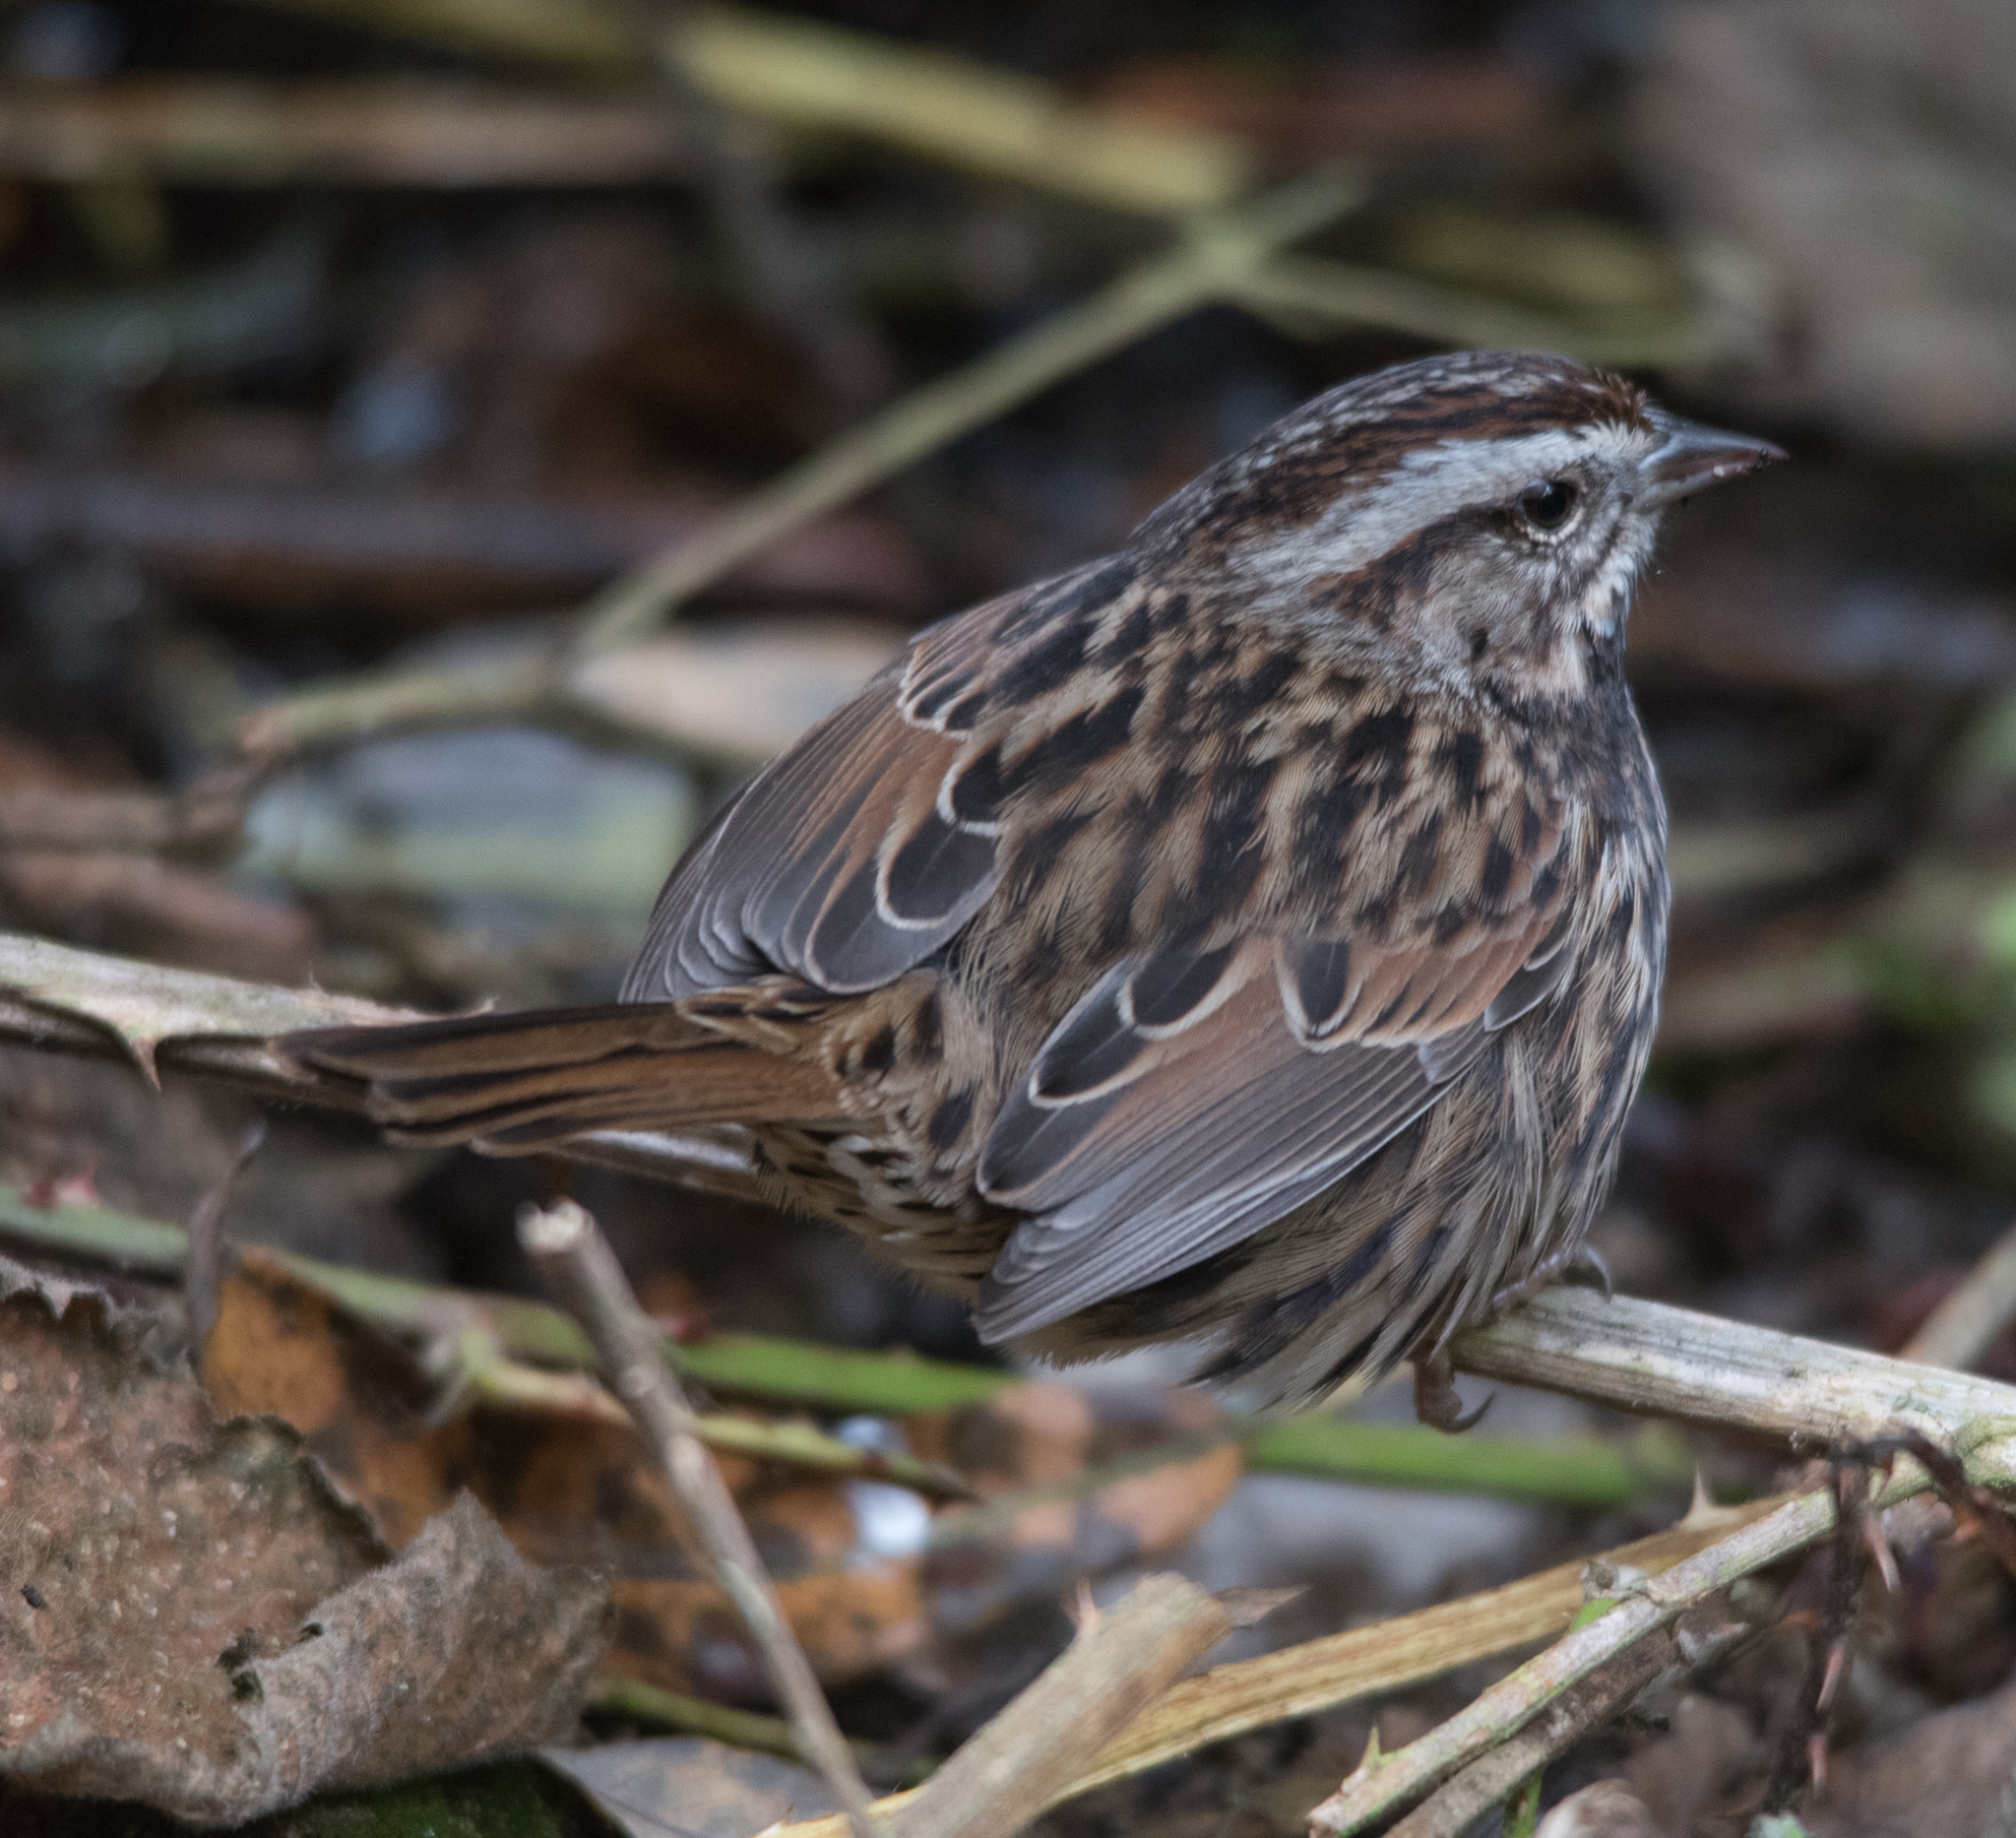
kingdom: Animalia
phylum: Chordata
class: Aves
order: Passeriformes
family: Passerellidae
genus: Melospiza
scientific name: Melospiza melodia
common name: Song sparrow
